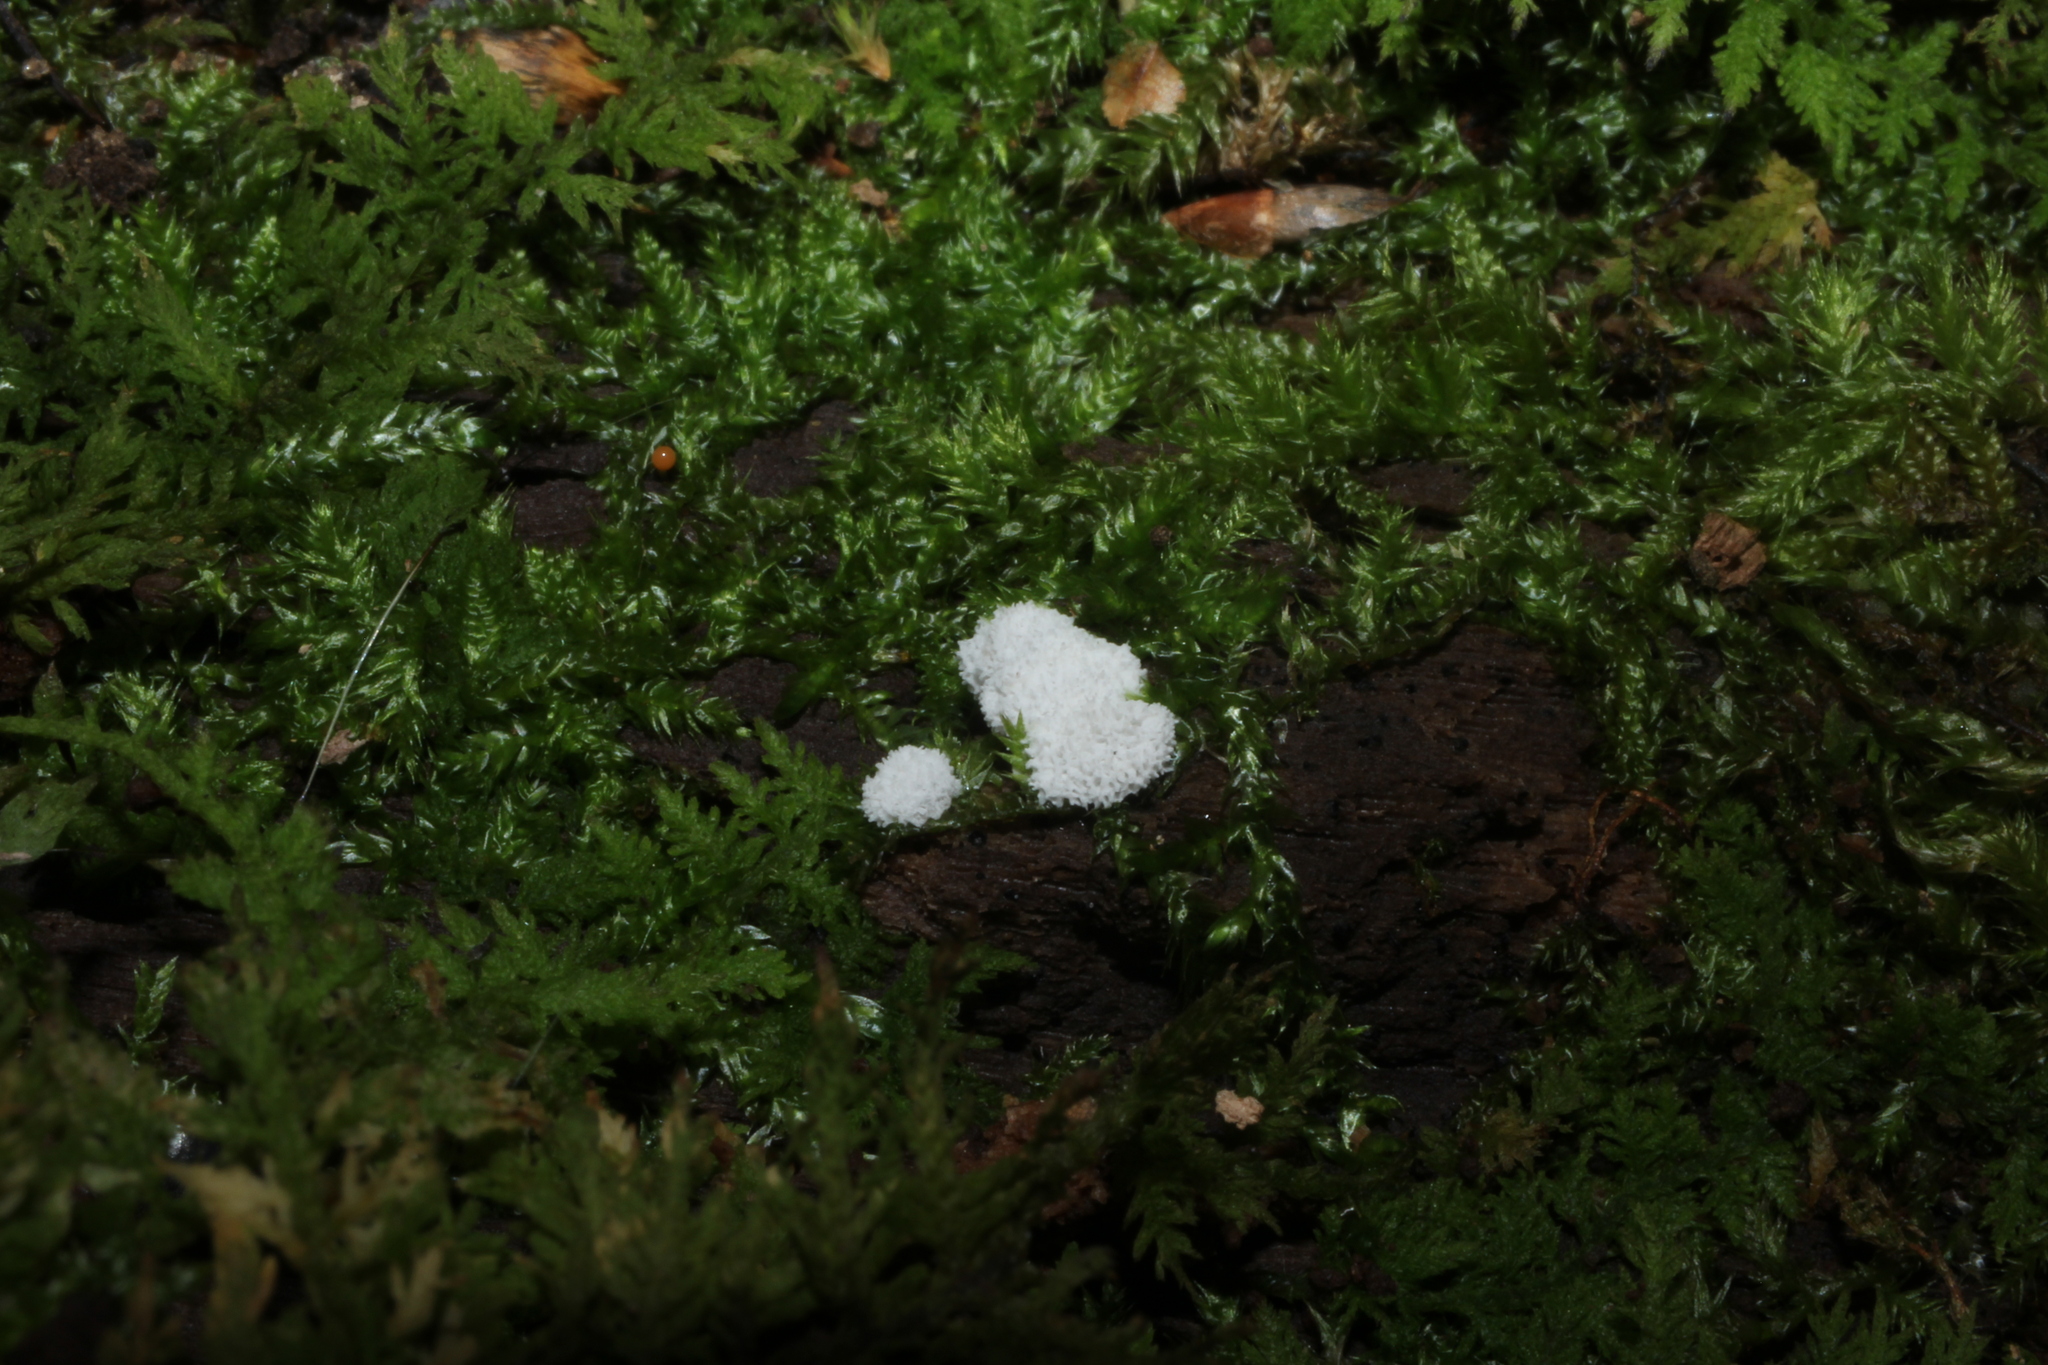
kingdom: Protozoa
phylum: Mycetozoa
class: Protosteliomycetes
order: Ceratiomyxales
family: Ceratiomyxaceae
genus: Ceratiomyxa
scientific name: Ceratiomyxa fruticulosa
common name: Honeycomb coral slime mold
